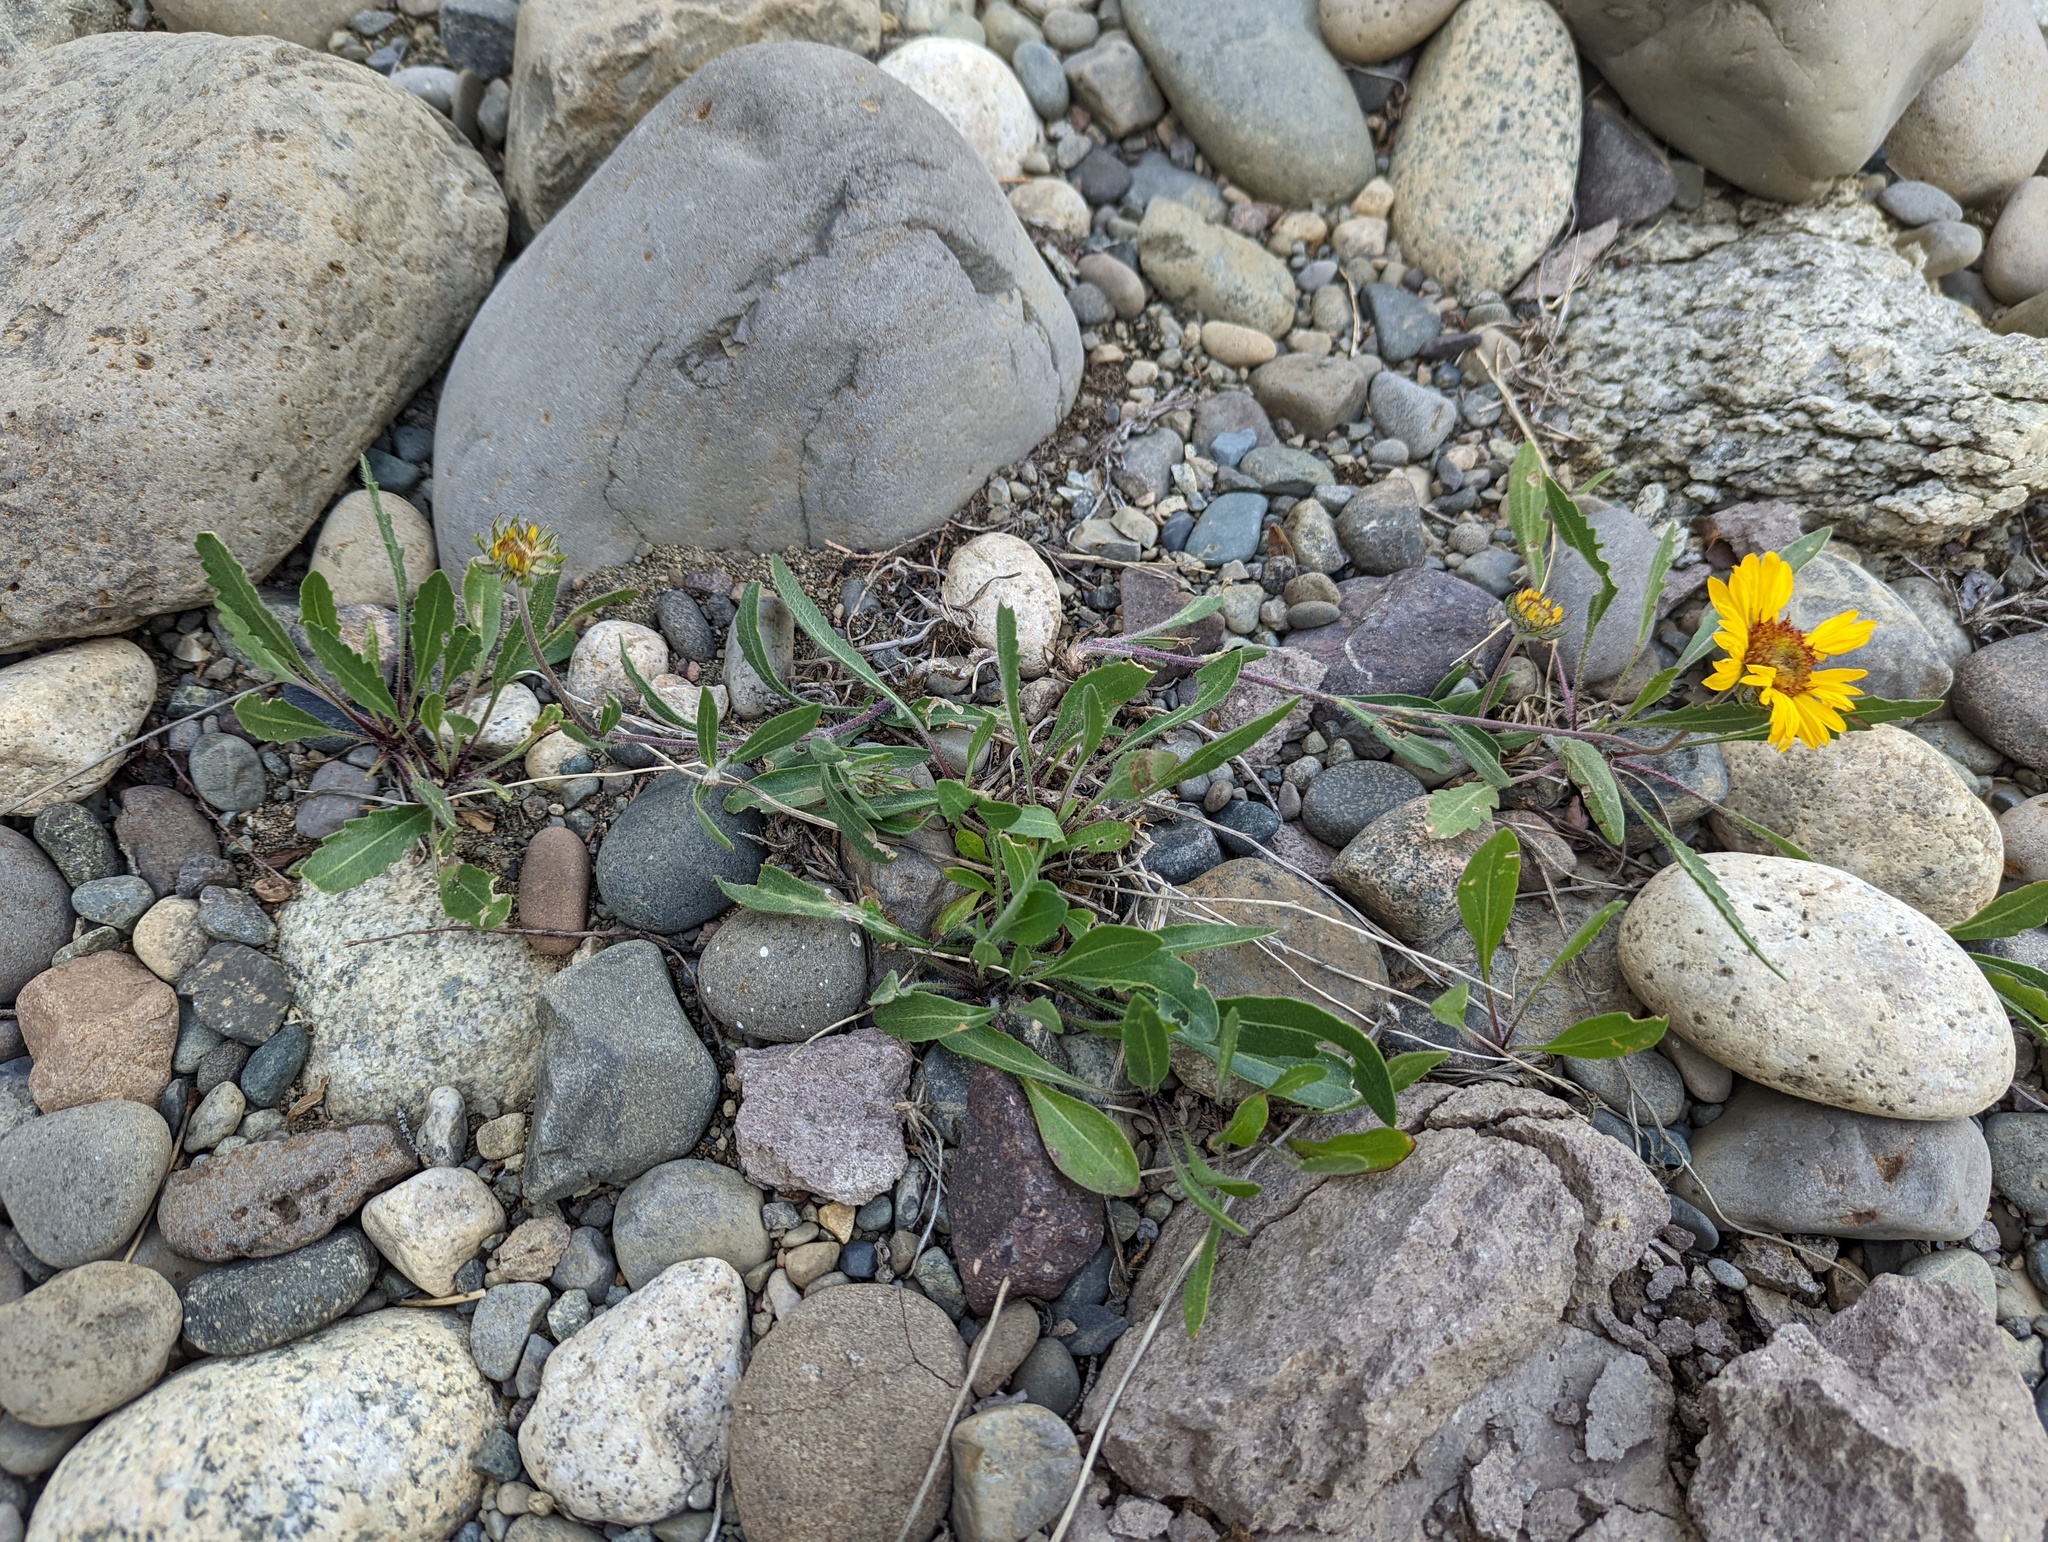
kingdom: Plantae
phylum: Tracheophyta
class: Magnoliopsida
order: Asterales
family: Asteraceae
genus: Gaillardia
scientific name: Gaillardia aristata
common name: Blanket-flower
